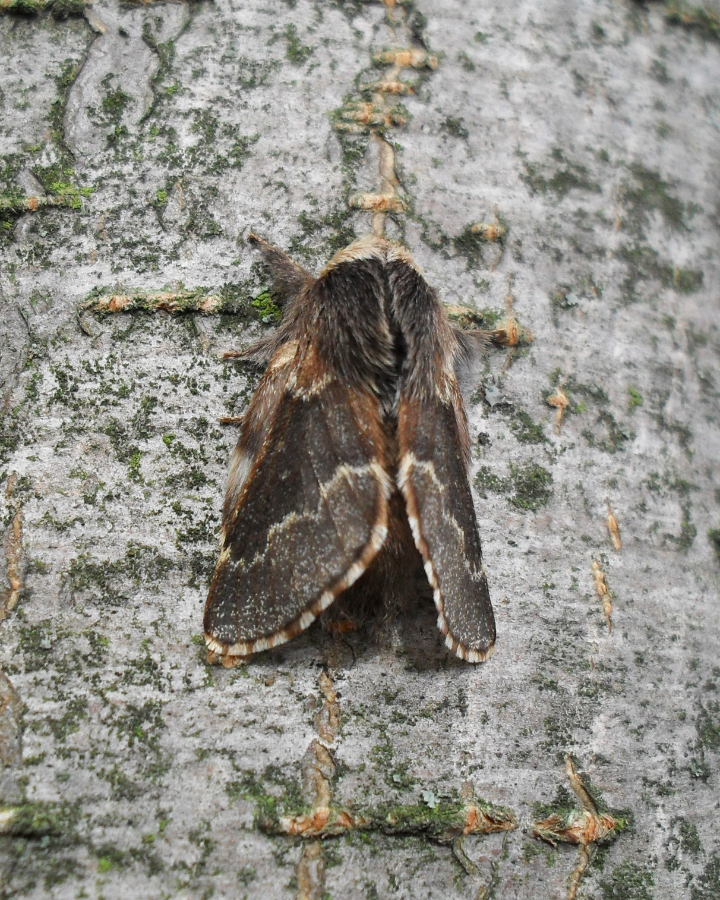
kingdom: Animalia
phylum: Arthropoda
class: Insecta
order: Lepidoptera
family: Lasiocampidae
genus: Poecilocampa
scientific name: Poecilocampa populi
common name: December moth
